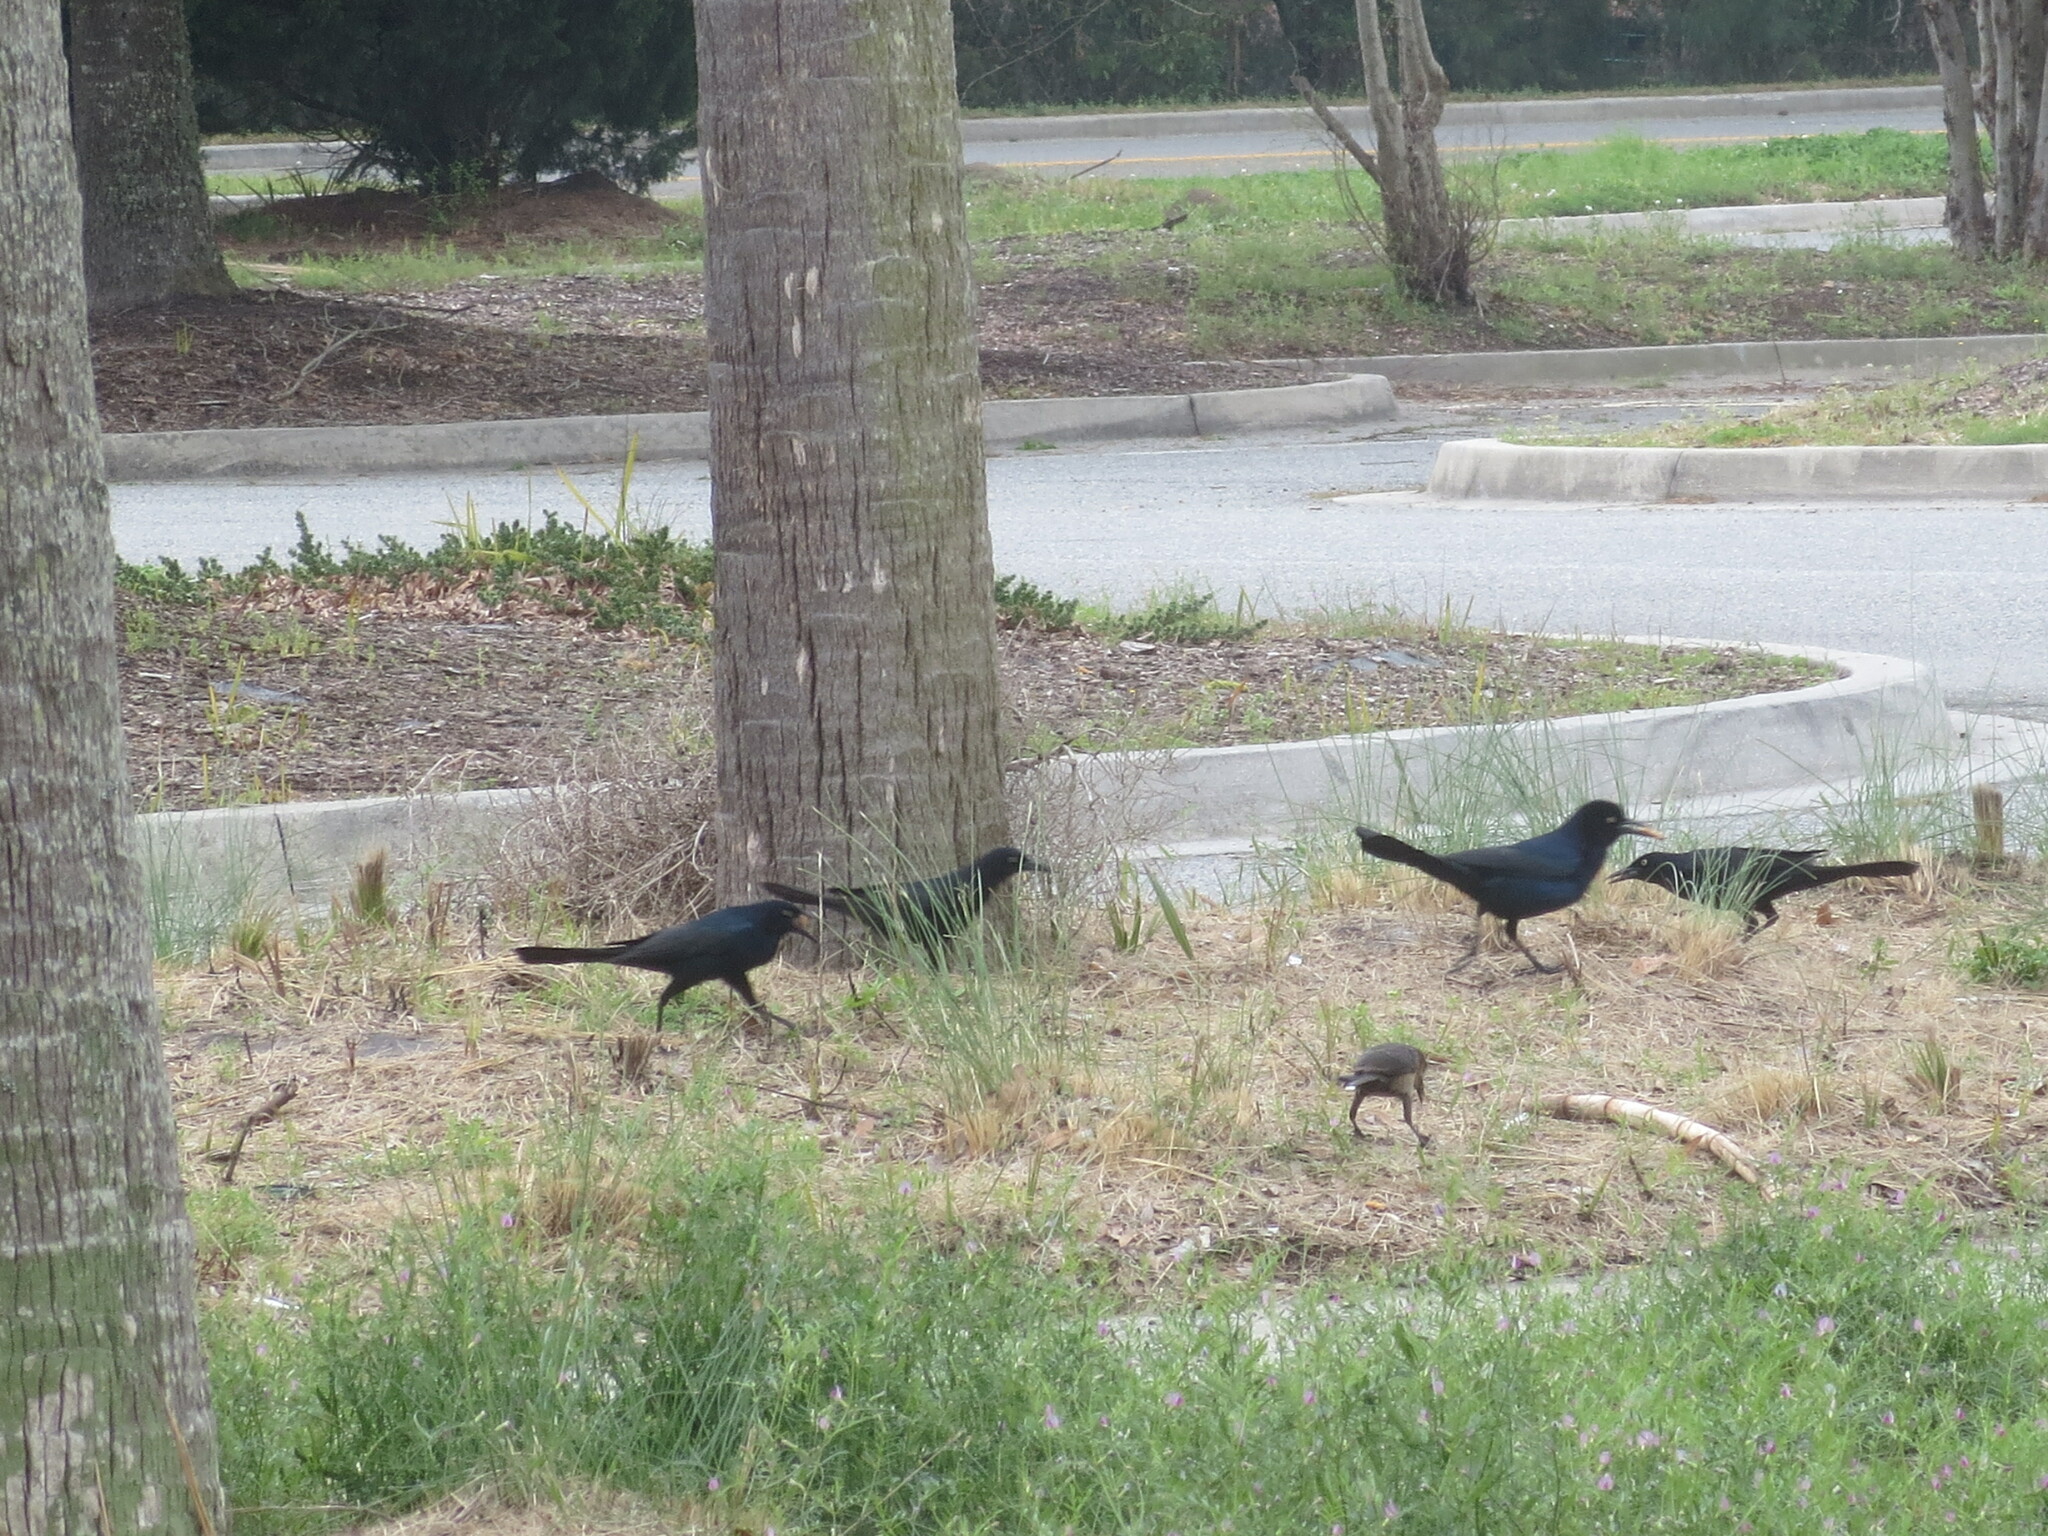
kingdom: Animalia
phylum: Chordata
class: Aves
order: Passeriformes
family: Icteridae
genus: Quiscalus
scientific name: Quiscalus major
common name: Boat-tailed grackle
